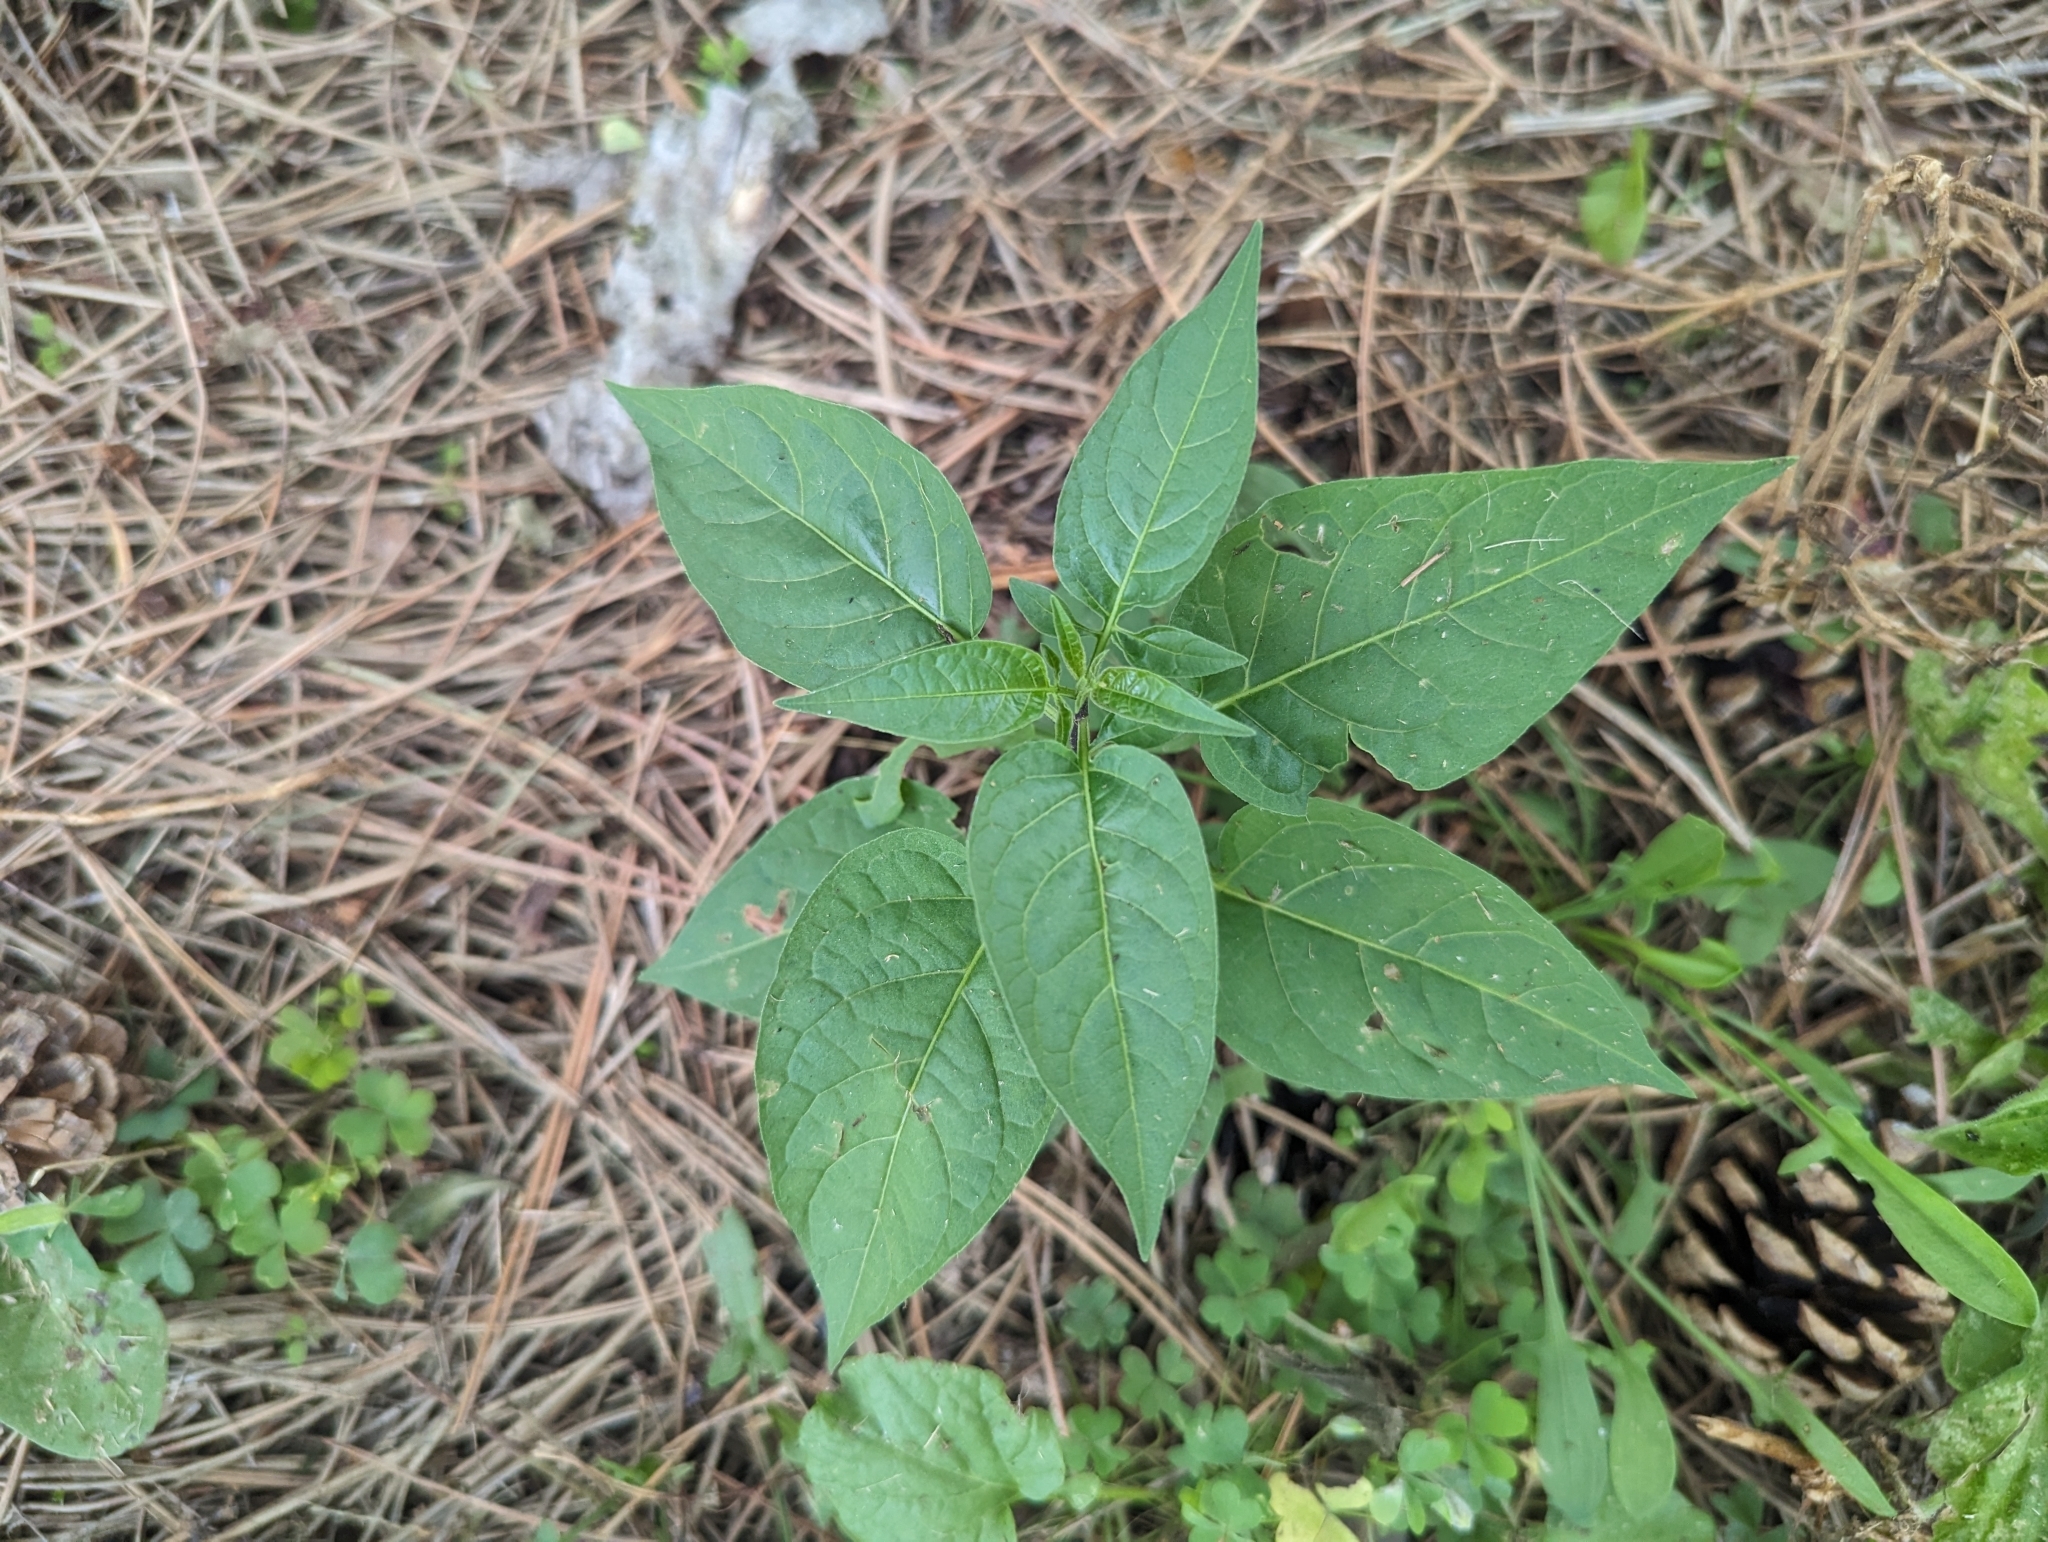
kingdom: Plantae
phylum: Tracheophyta
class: Magnoliopsida
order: Solanales
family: Solanaceae
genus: Solanum
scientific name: Solanum dulcamara
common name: Climbing nightshade
